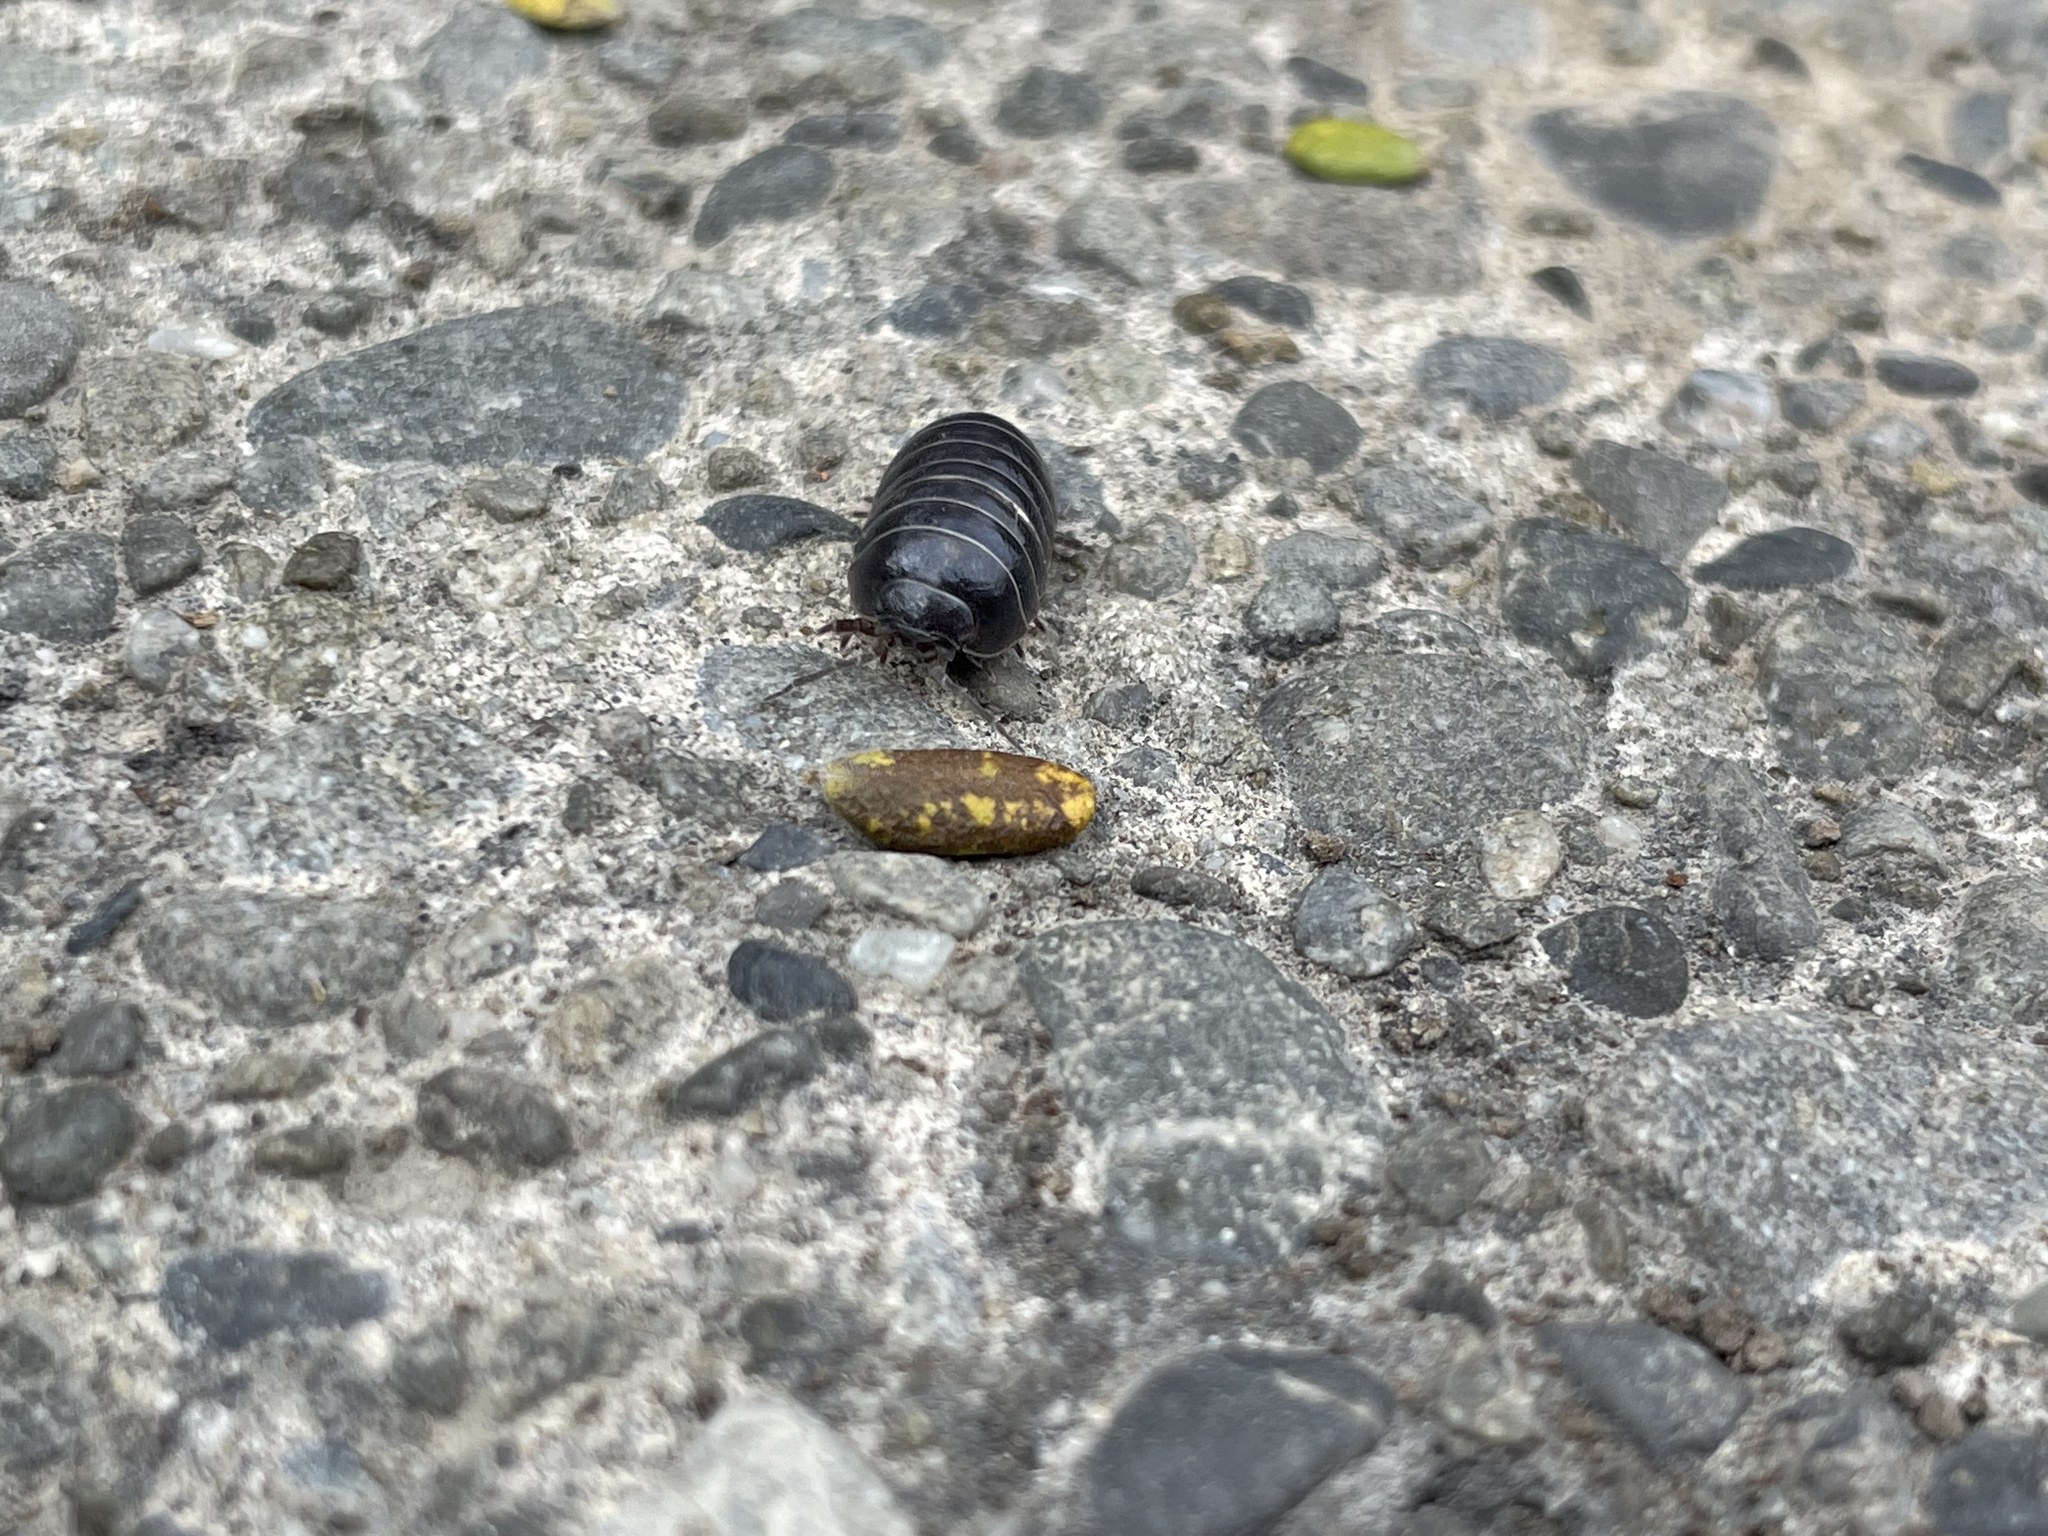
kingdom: Animalia
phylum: Arthropoda
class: Malacostraca
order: Isopoda
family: Armadillidiidae
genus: Armadillidium
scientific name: Armadillidium vulgare
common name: Common pill woodlouse
